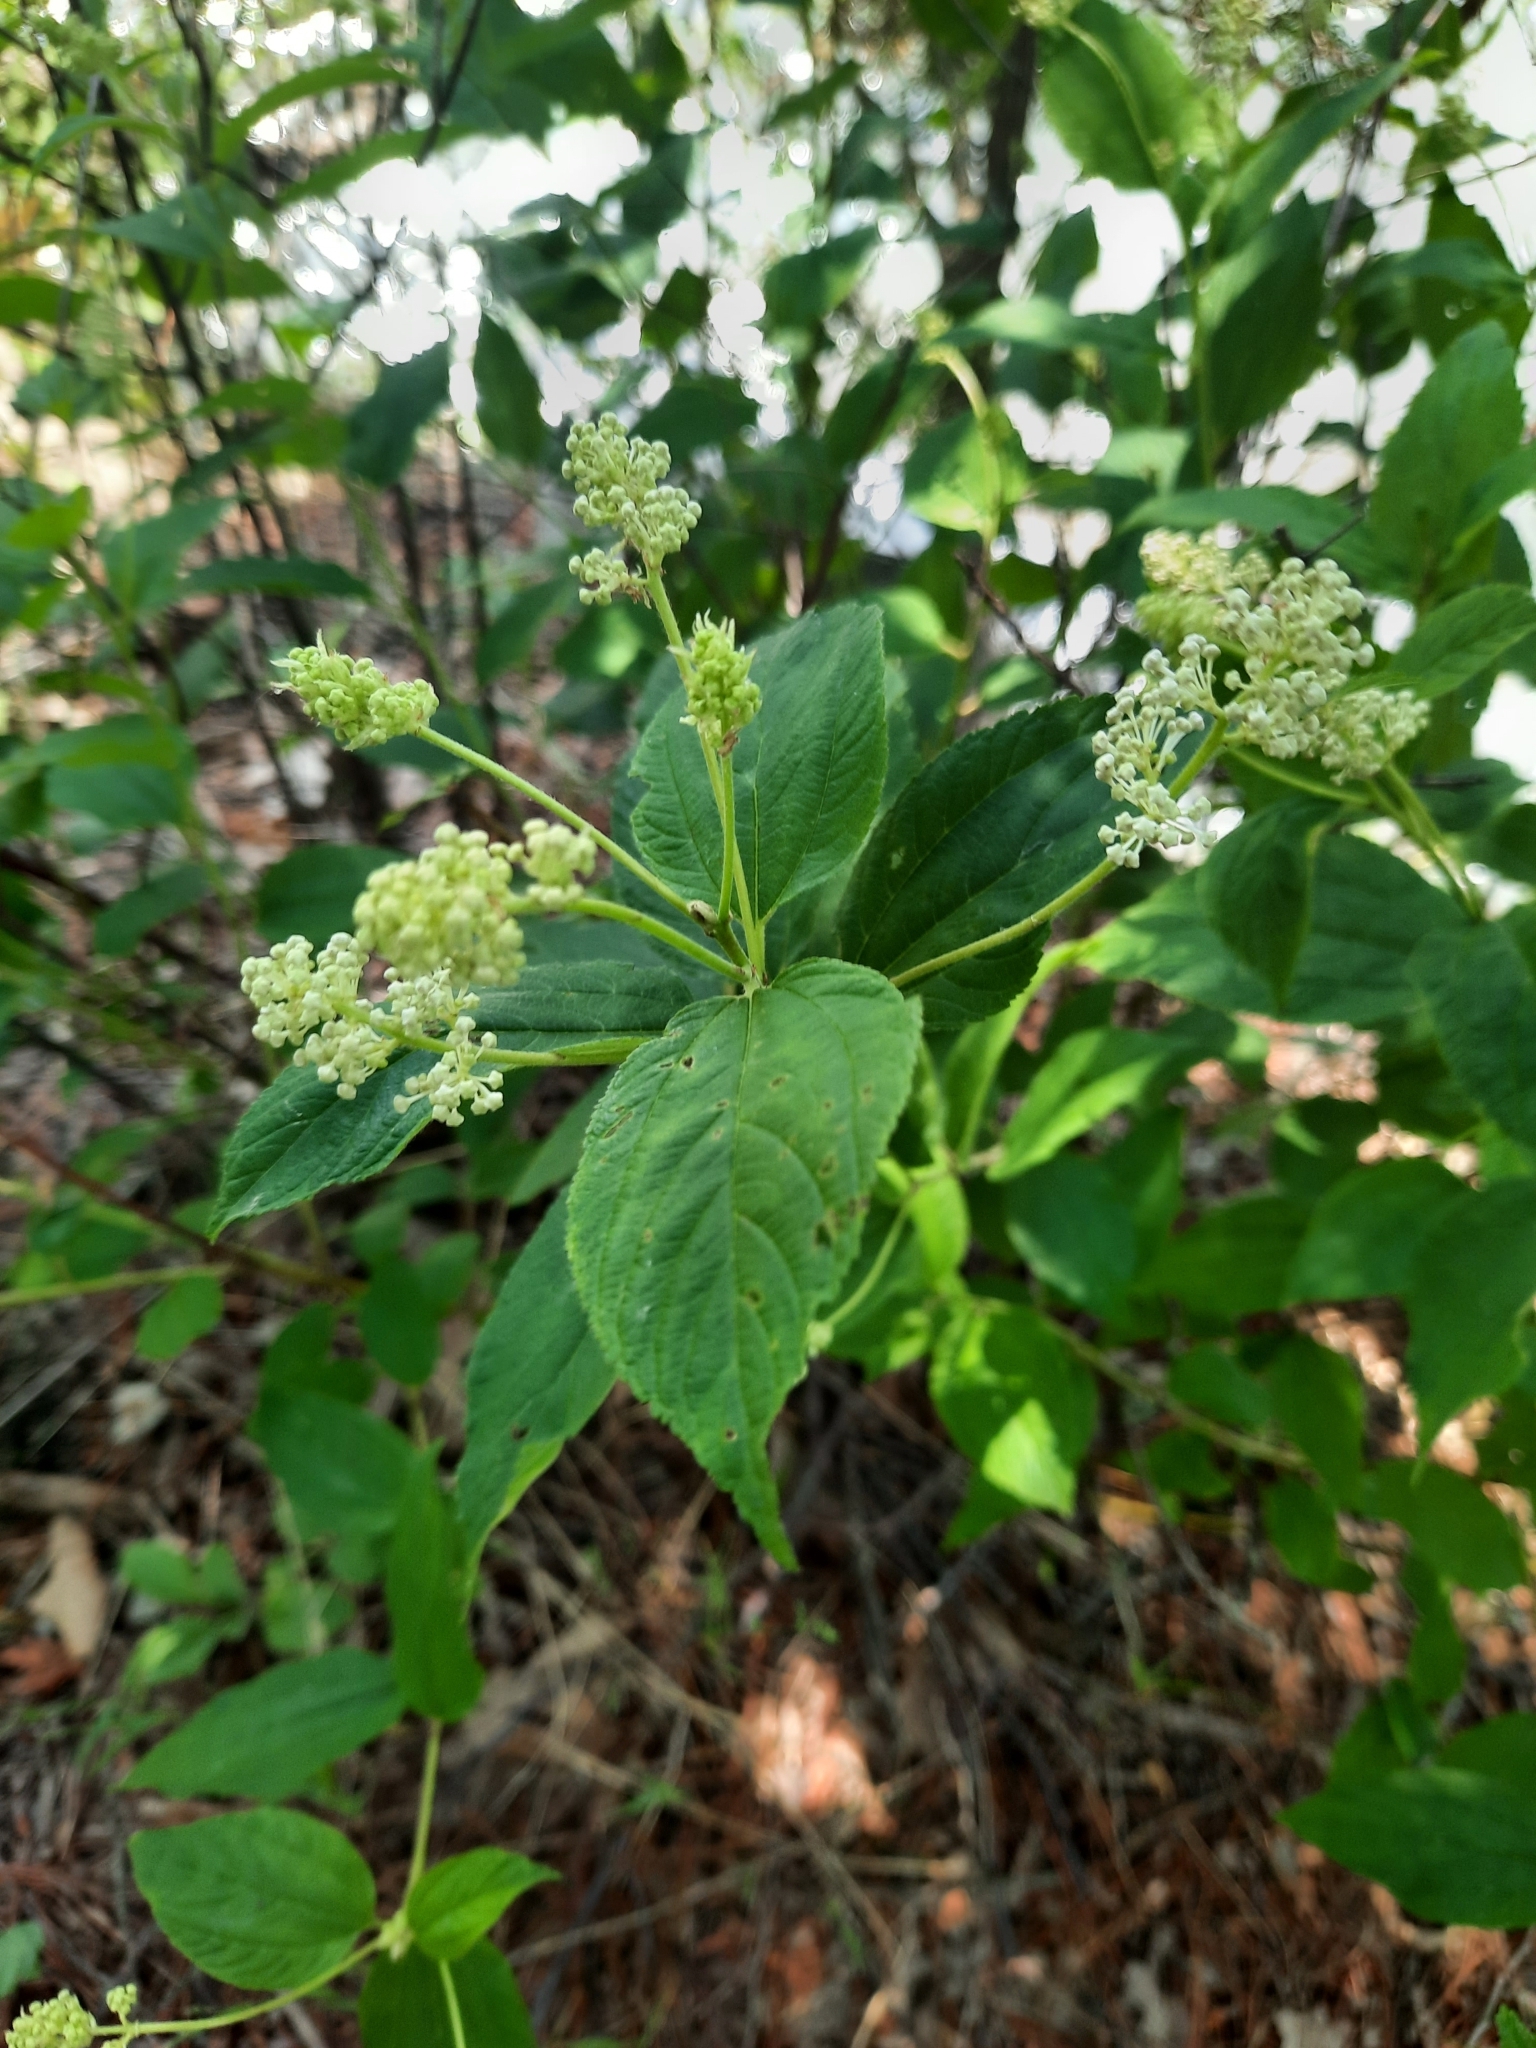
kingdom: Plantae
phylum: Tracheophyta
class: Magnoliopsida
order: Rosales
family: Rhamnaceae
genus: Ceanothus
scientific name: Ceanothus americanus
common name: Redroot
